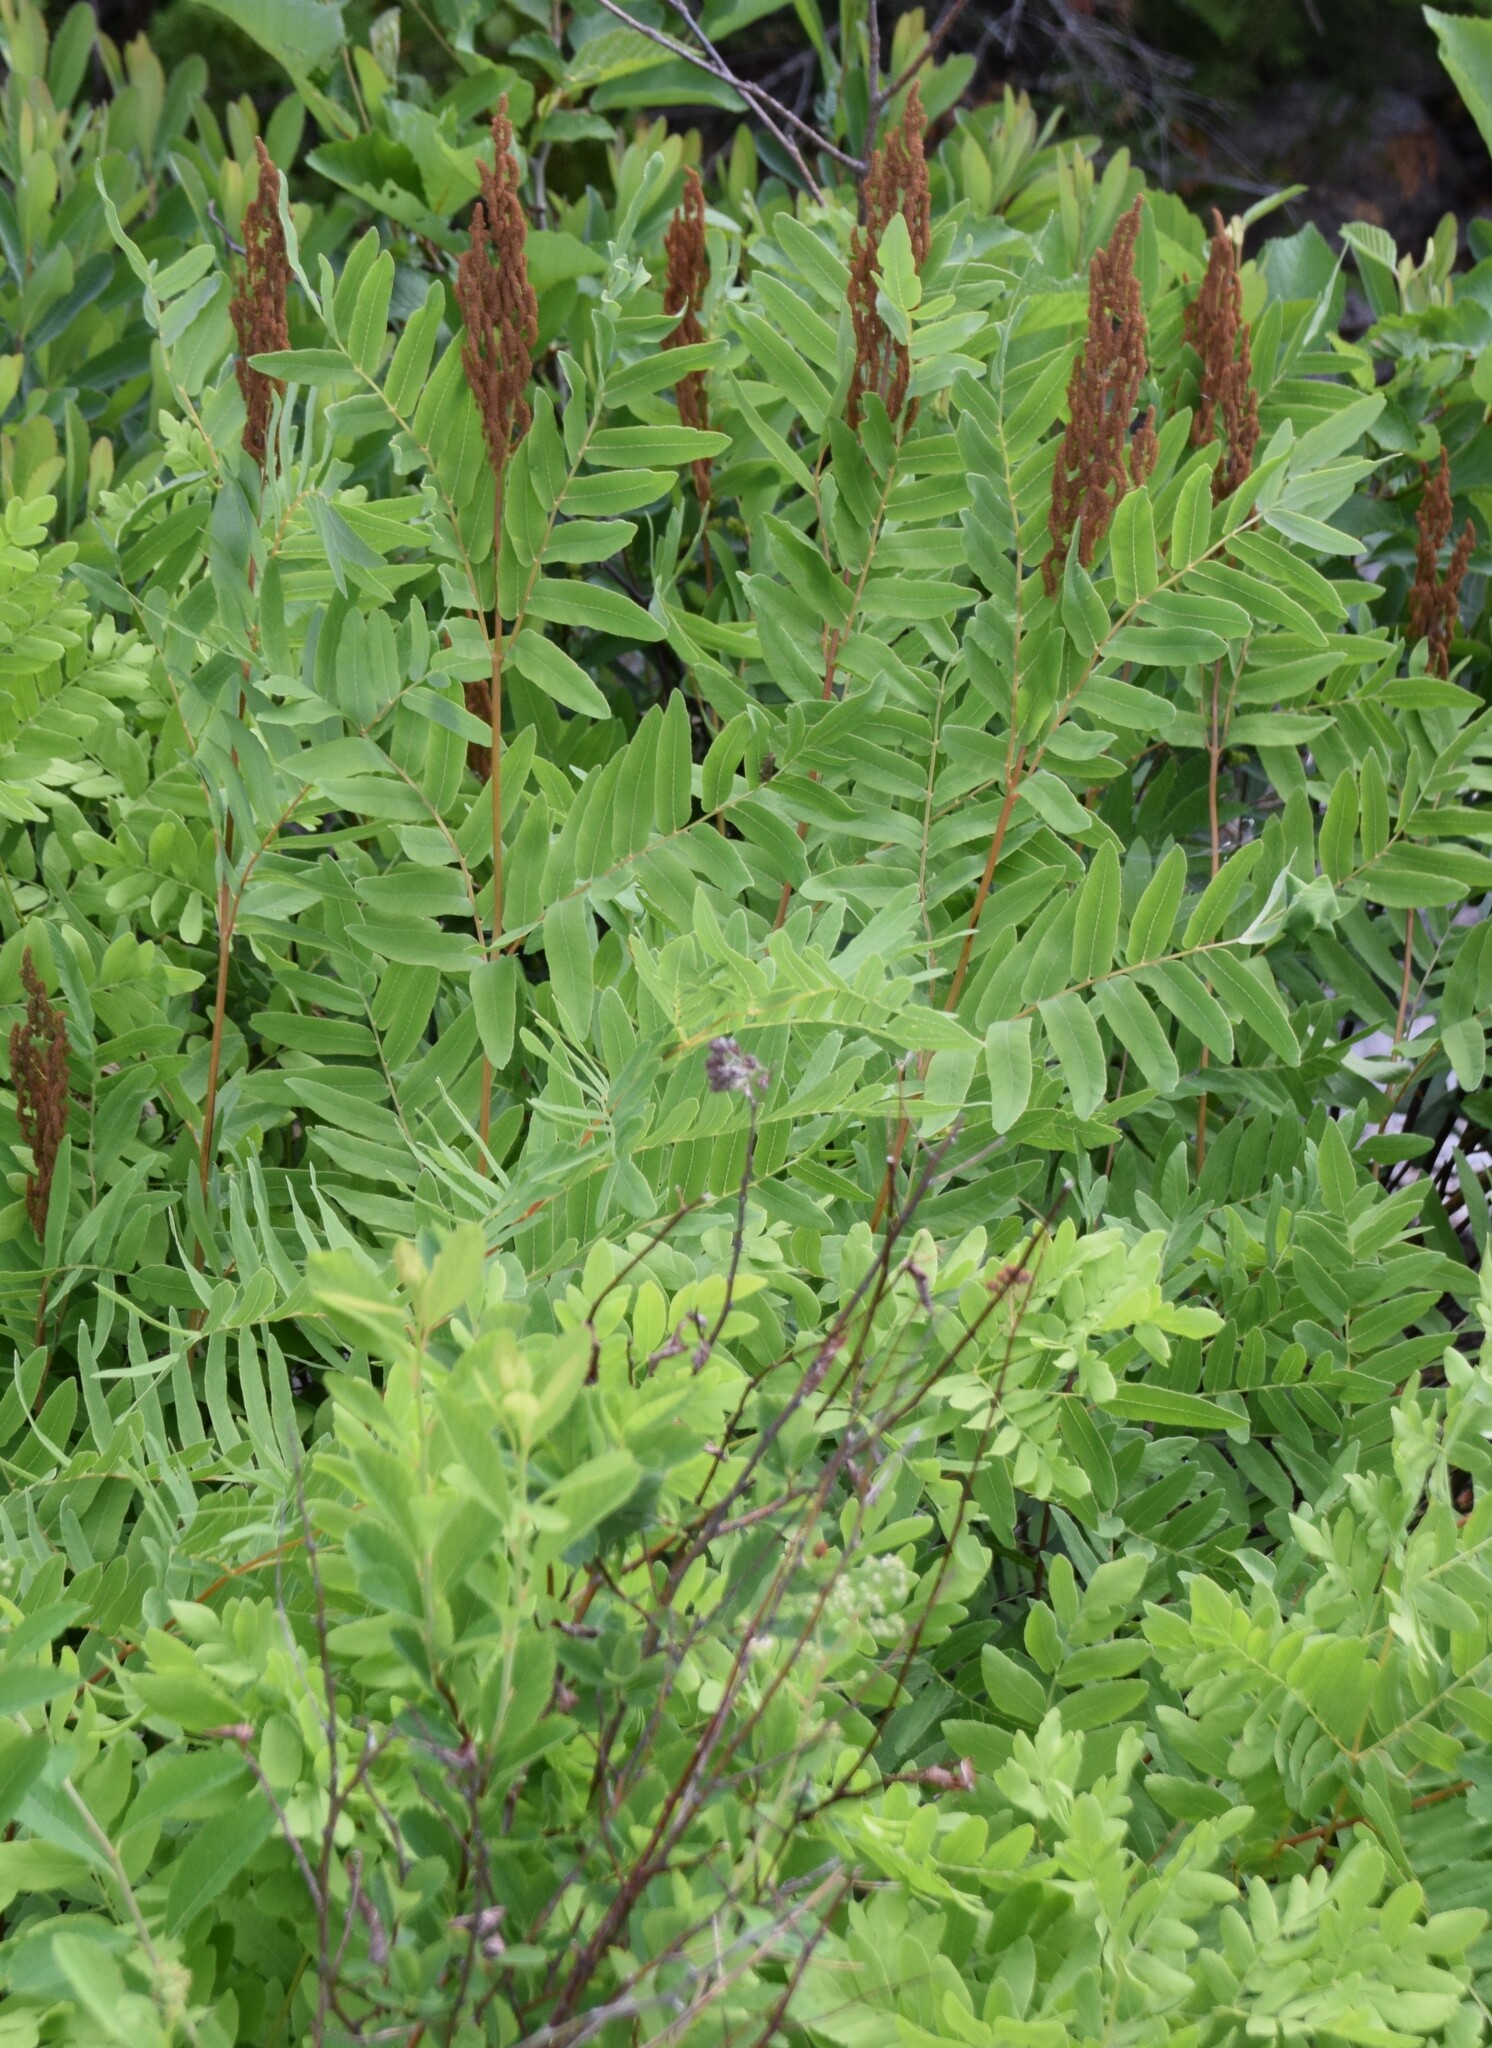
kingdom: Plantae
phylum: Tracheophyta
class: Polypodiopsida
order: Osmundales
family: Osmundaceae
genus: Osmunda
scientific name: Osmunda spectabilis
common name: American royal fern
